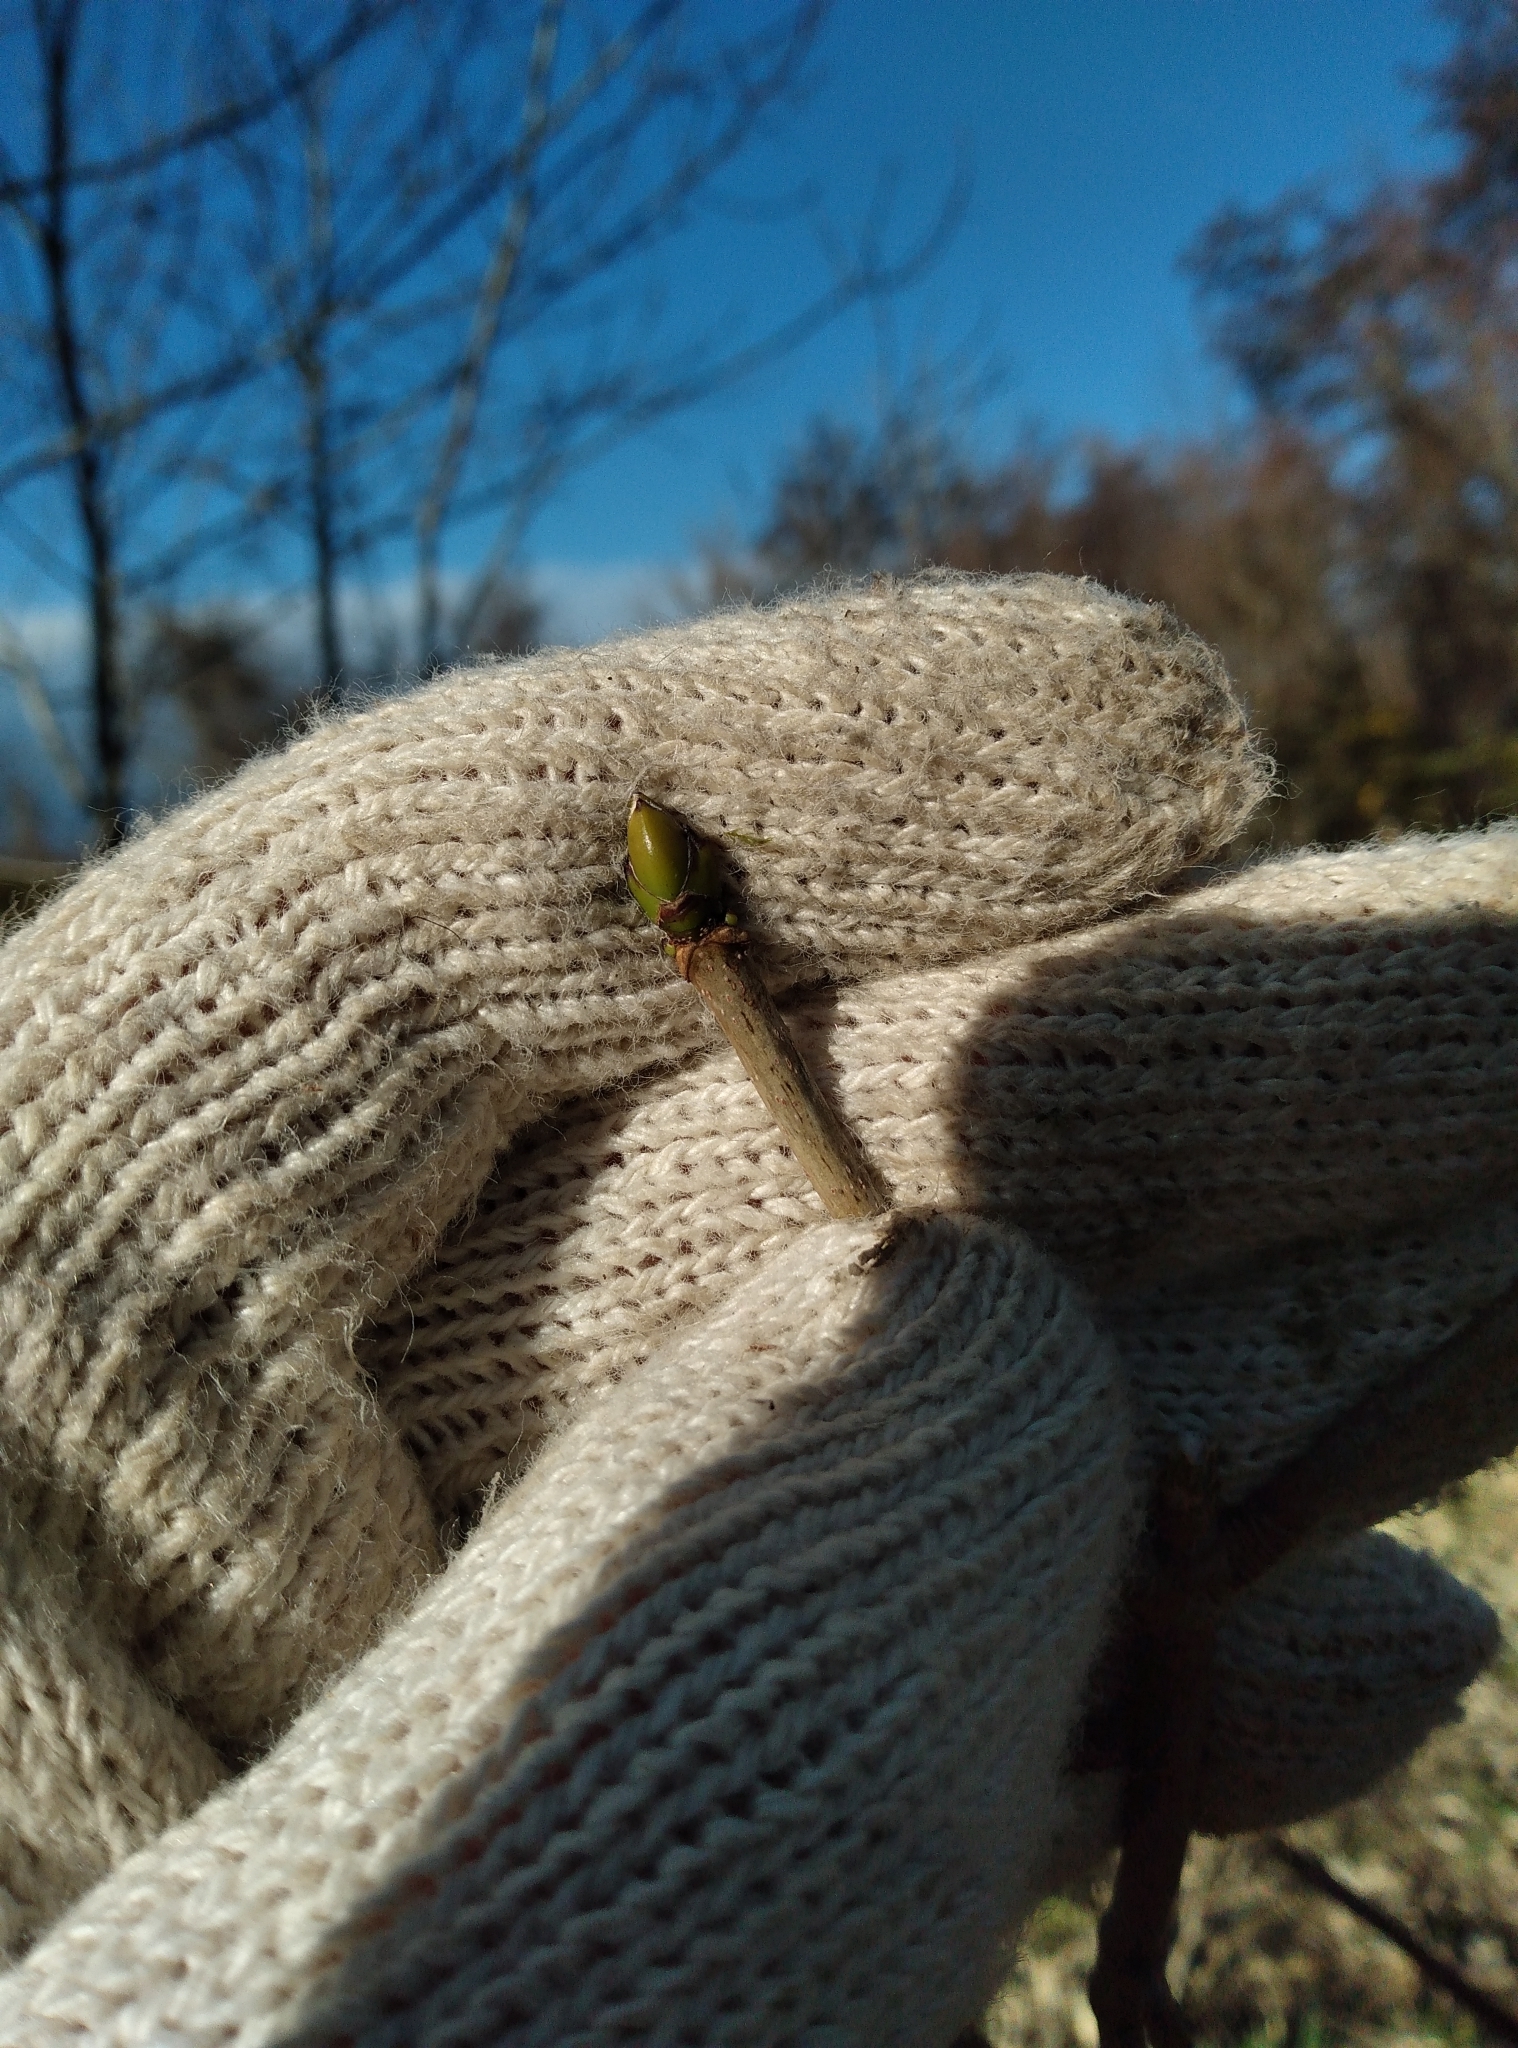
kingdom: Plantae
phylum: Tracheophyta
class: Magnoliopsida
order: Sapindales
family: Sapindaceae
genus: Acer
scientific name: Acer pseudoplatanus
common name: Sycamore
